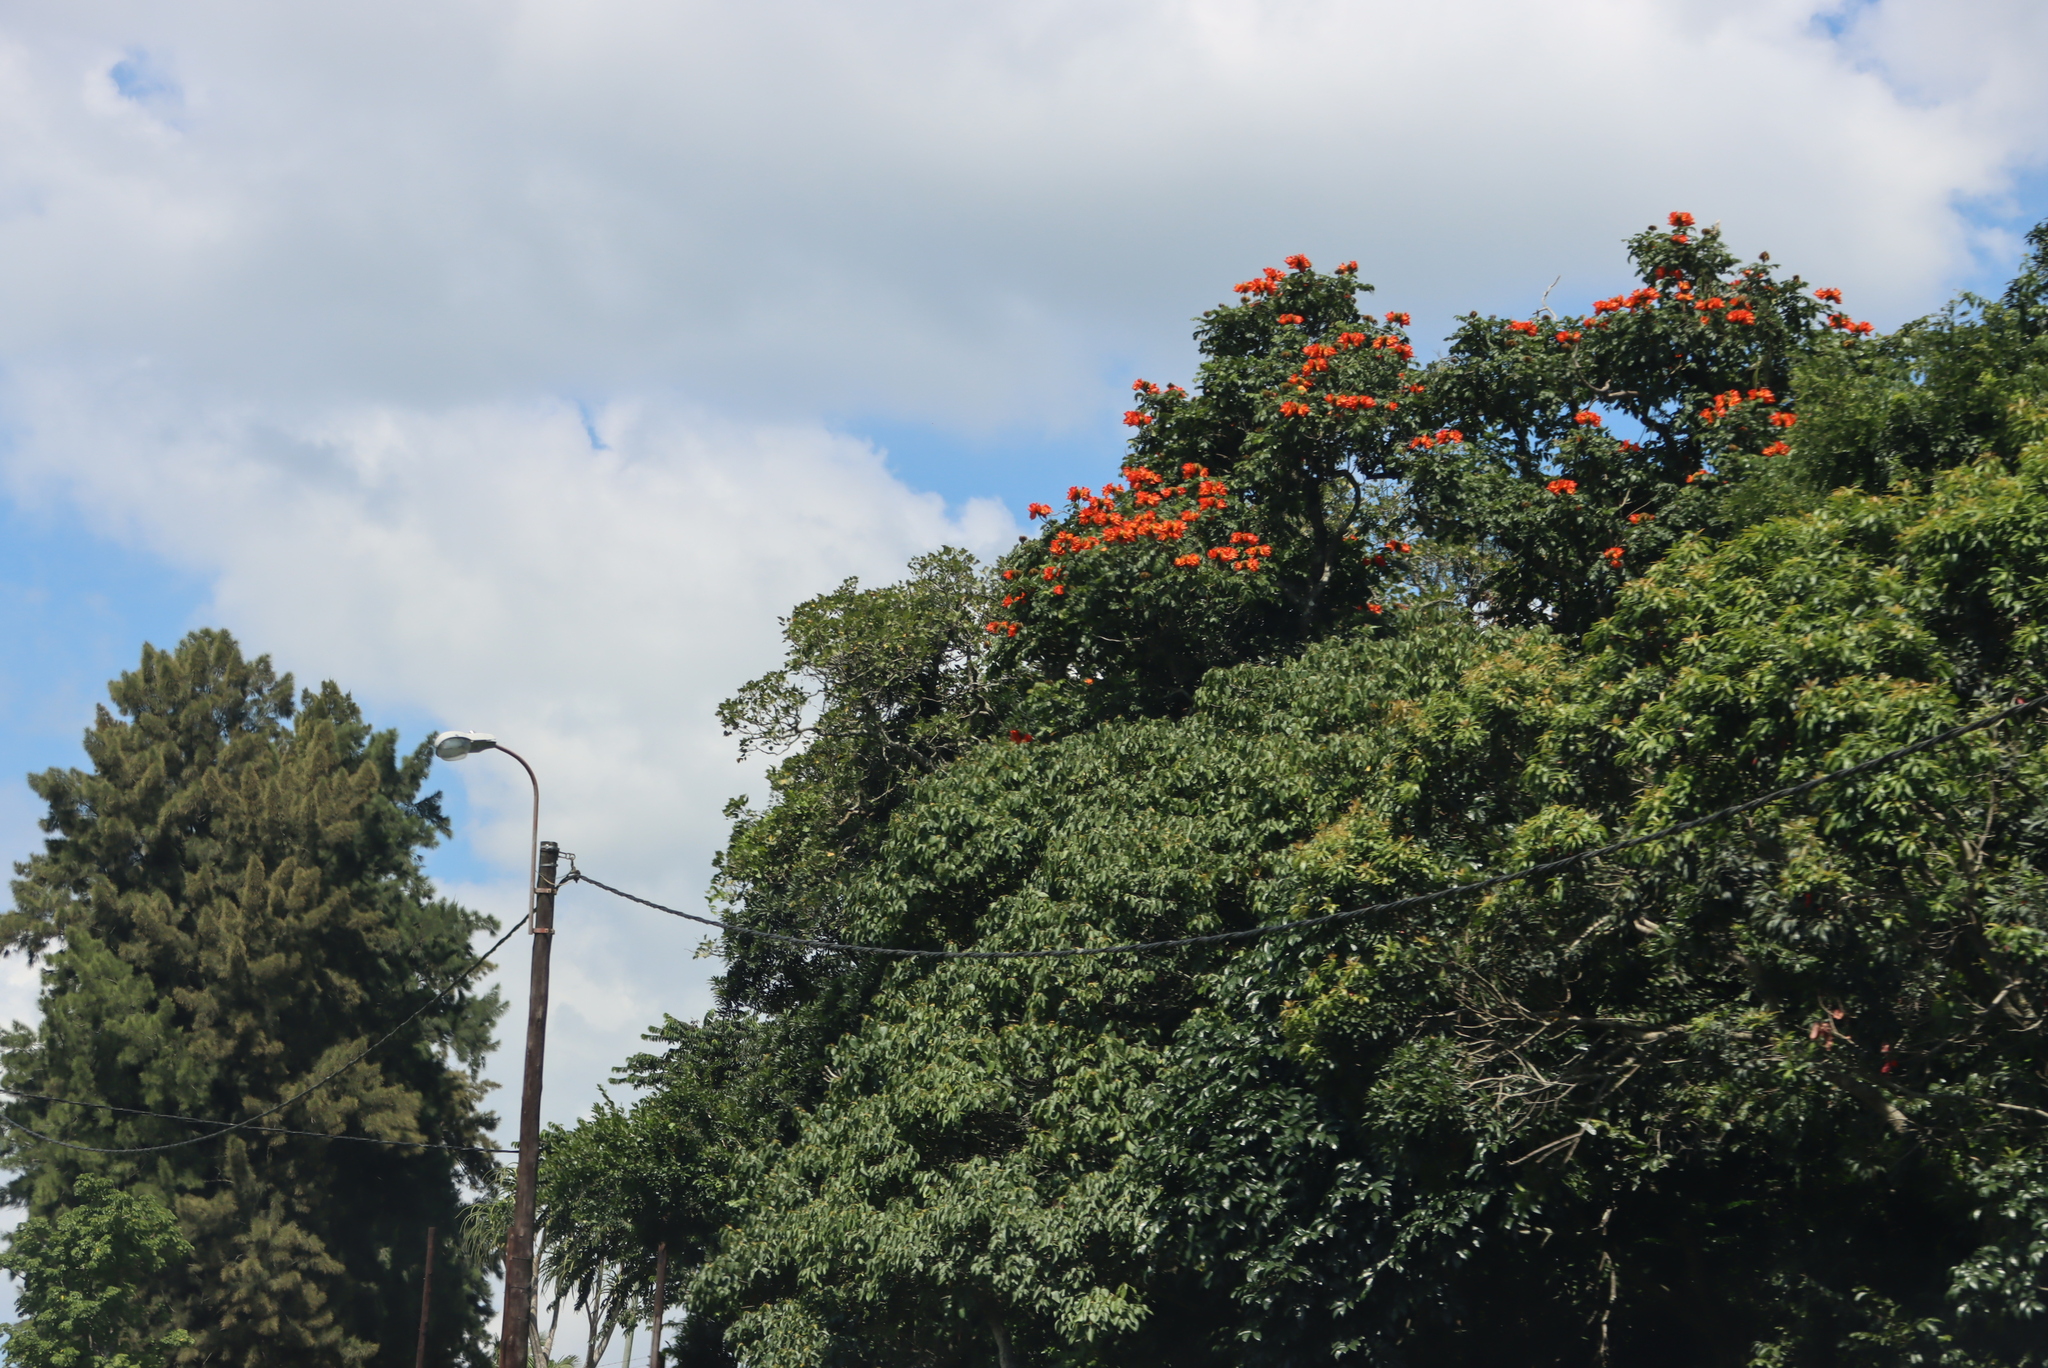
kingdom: Plantae
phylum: Tracheophyta
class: Magnoliopsida
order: Lamiales
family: Bignoniaceae
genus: Spathodea
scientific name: Spathodea campanulata
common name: African tuliptree
